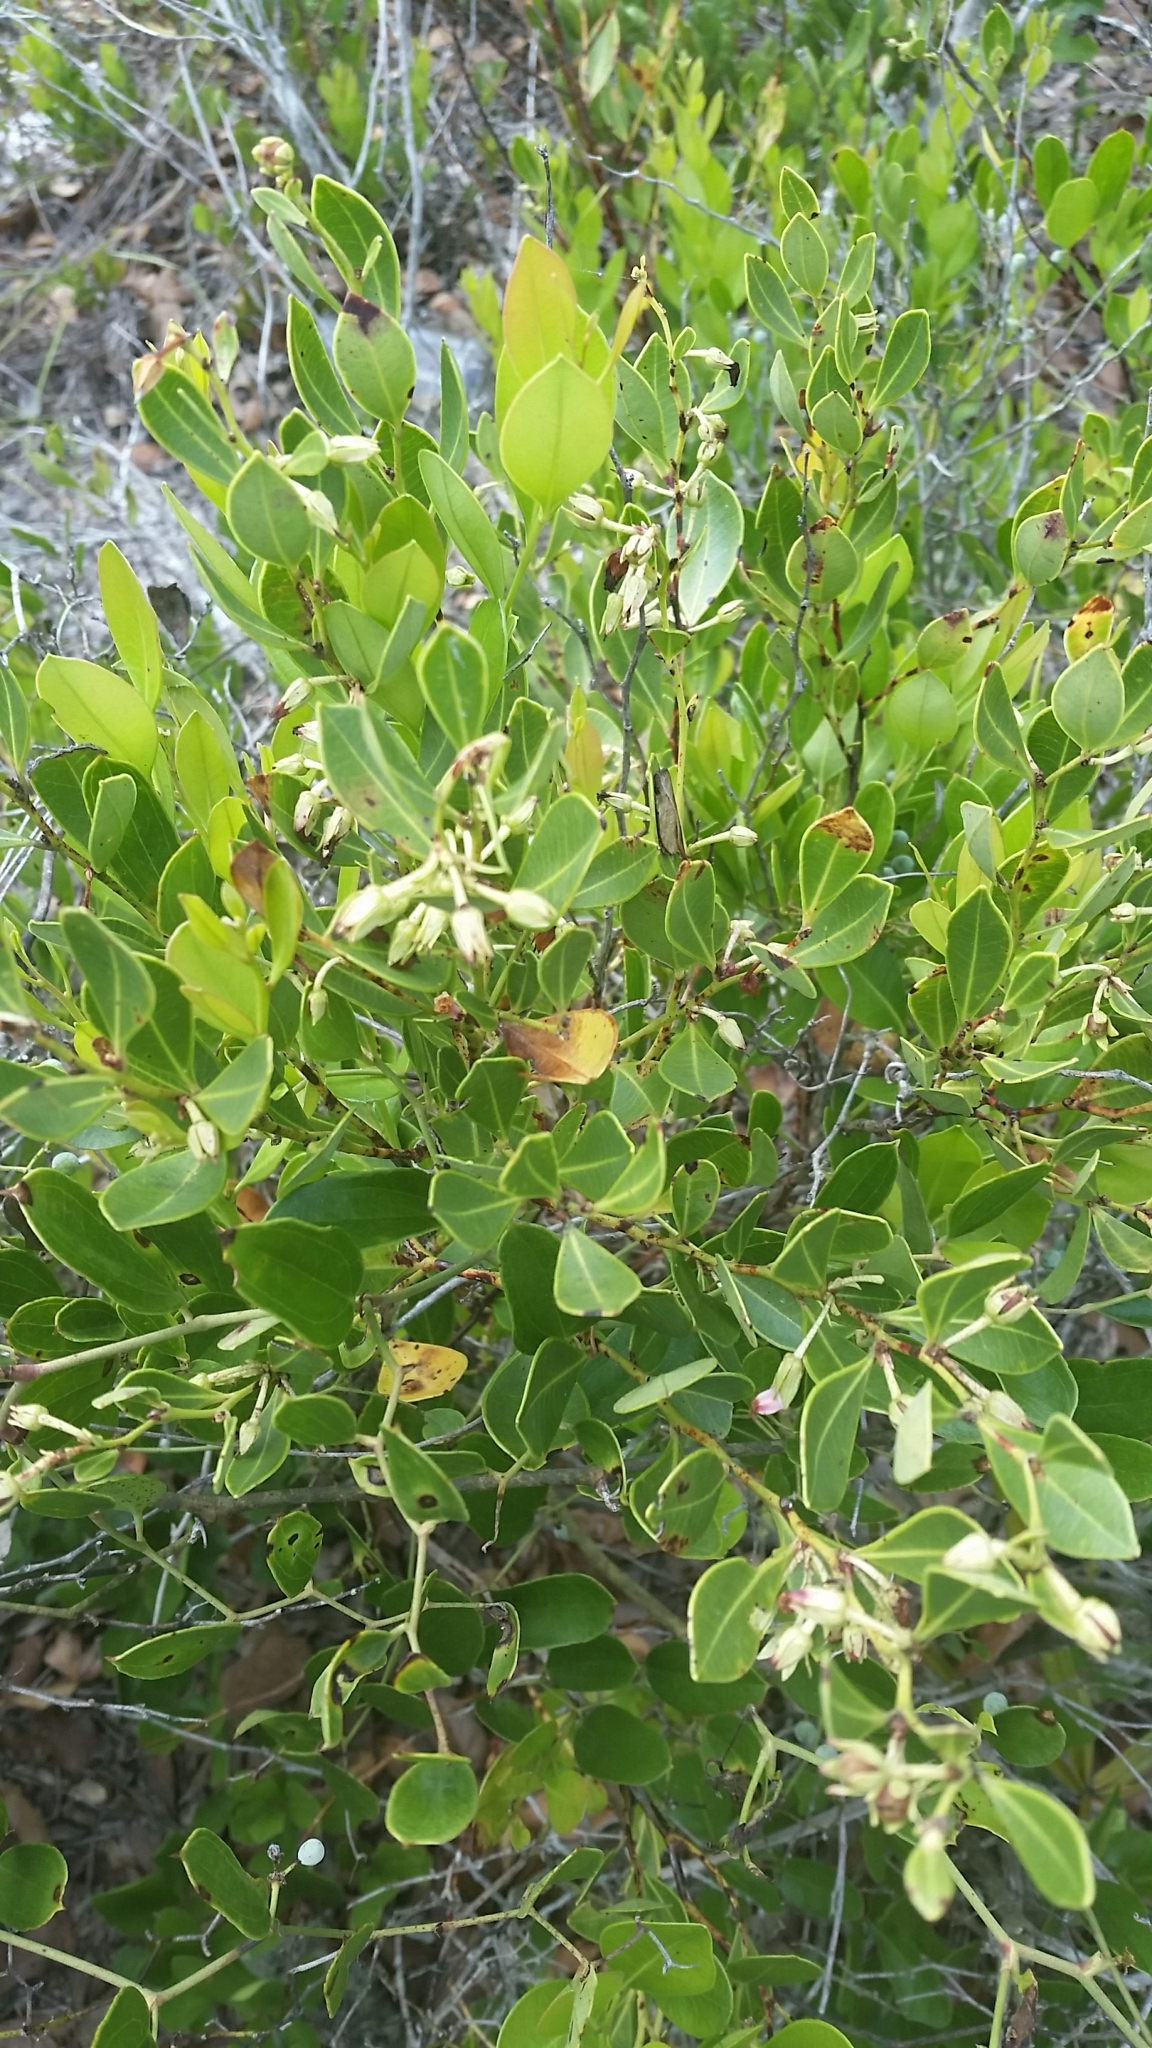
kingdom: Plantae
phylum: Tracheophyta
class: Magnoliopsida
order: Ericales
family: Ericaceae
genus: Lyonia
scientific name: Lyonia lucida
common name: Fetterbush
